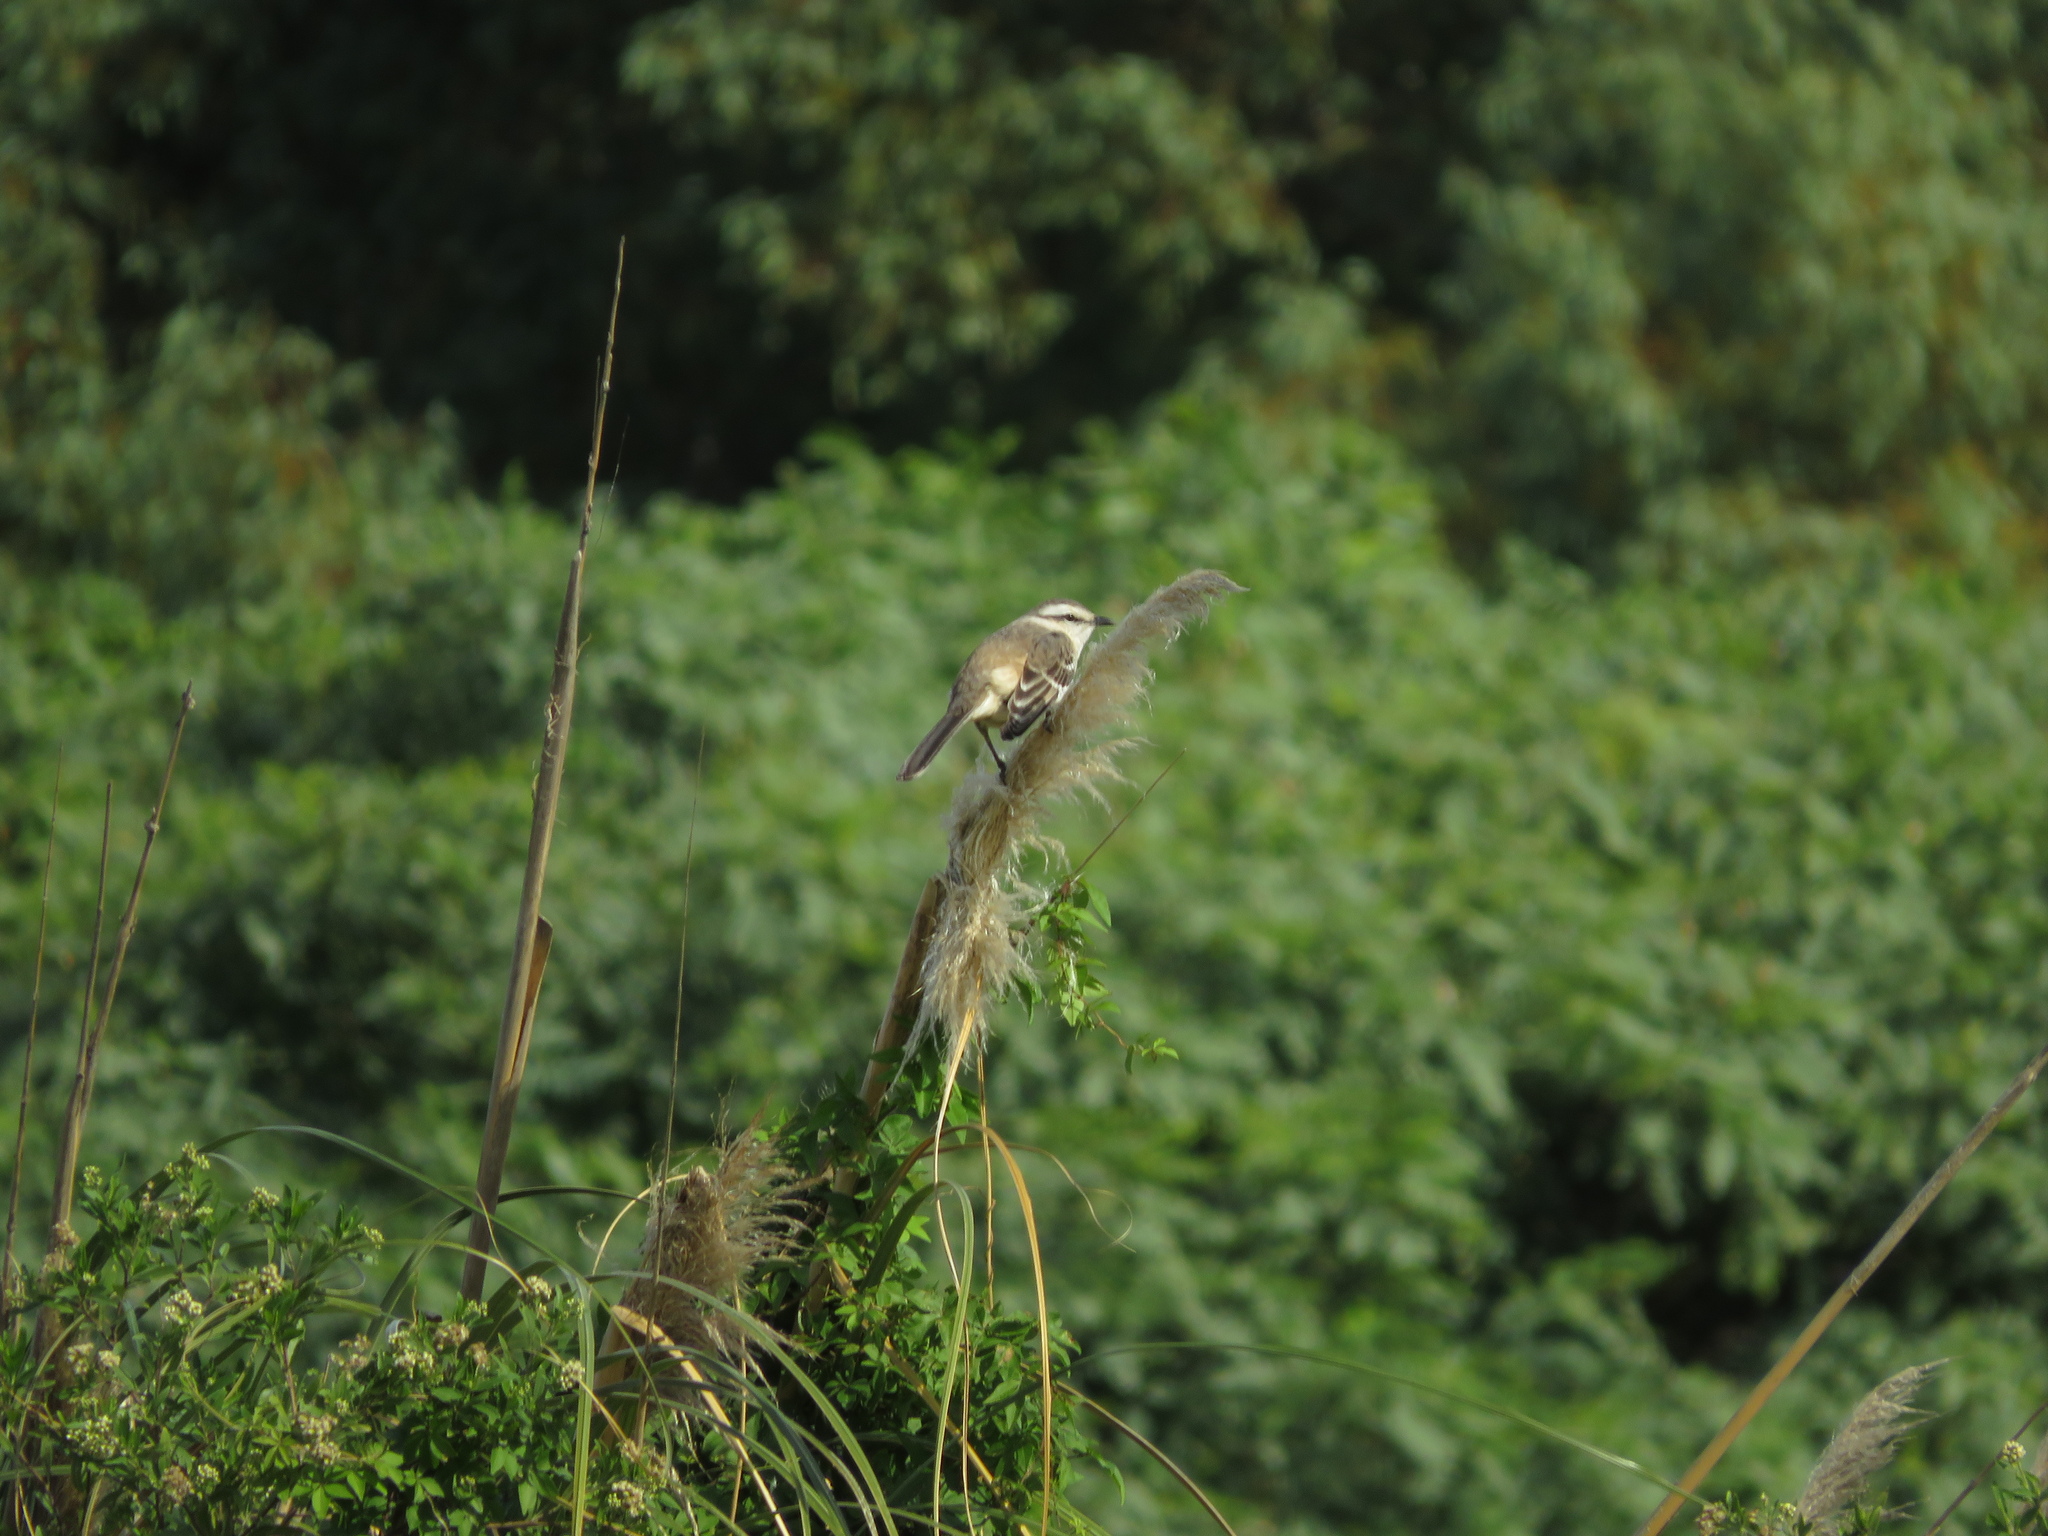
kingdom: Animalia
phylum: Chordata
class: Aves
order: Passeriformes
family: Mimidae
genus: Mimus
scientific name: Mimus saturninus
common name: Chalk-browed mockingbird
